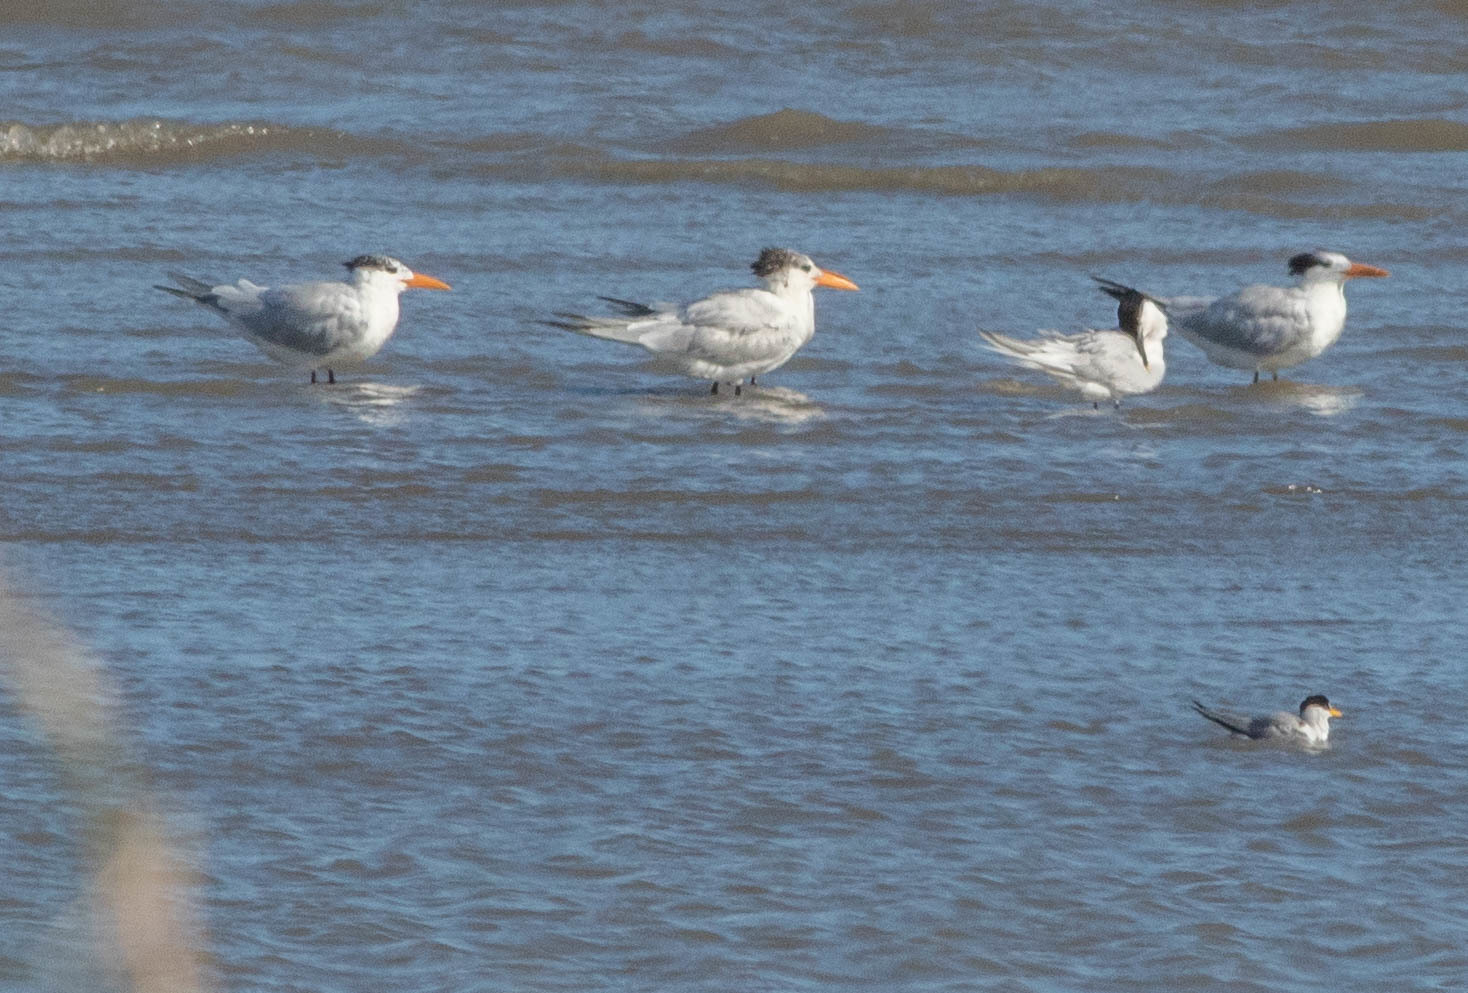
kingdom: Animalia
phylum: Chordata
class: Aves
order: Charadriiformes
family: Laridae
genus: Thalasseus
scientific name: Thalasseus maximus
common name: Royal tern
